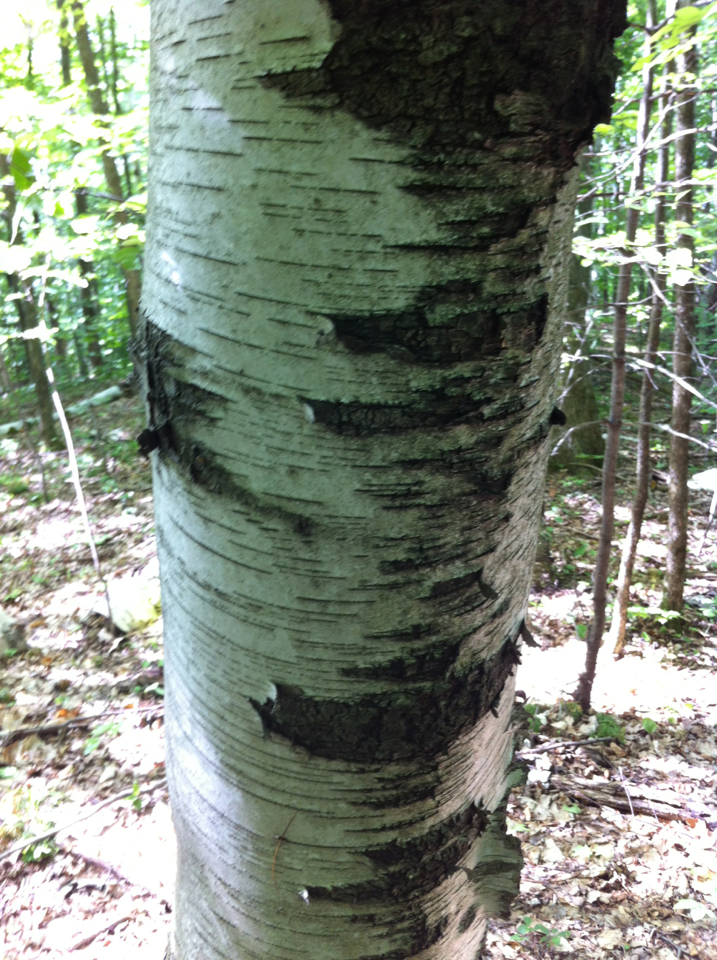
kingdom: Plantae
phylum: Tracheophyta
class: Magnoliopsida
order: Fagales
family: Betulaceae
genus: Betula
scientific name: Betula papyrifera
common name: Paper birch
